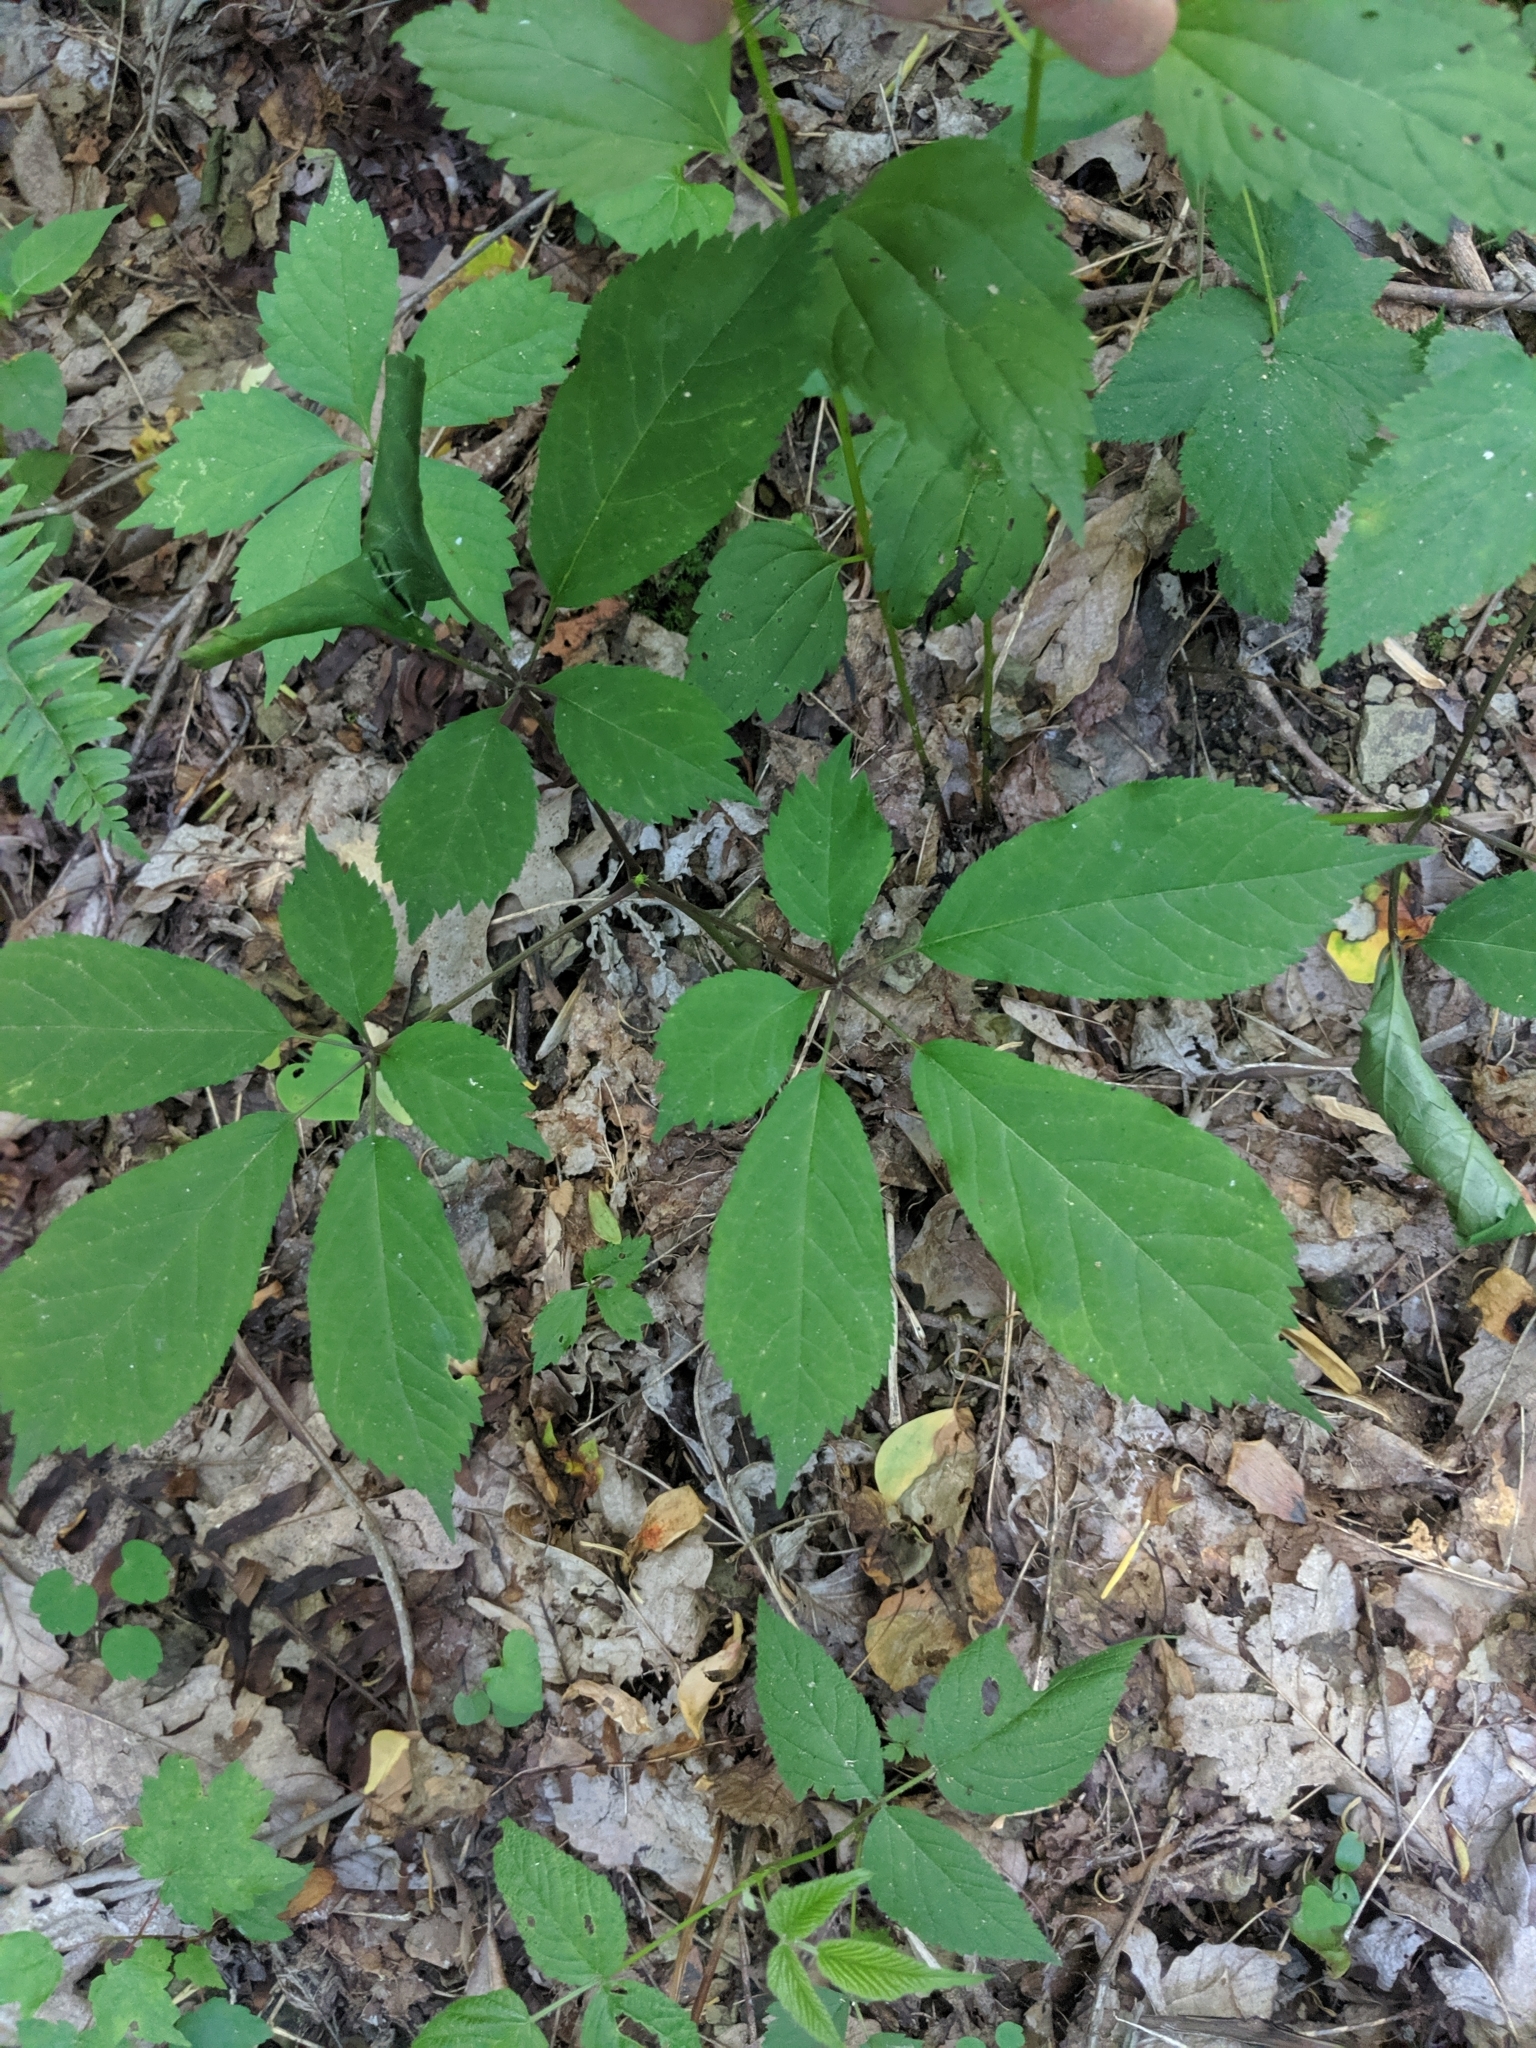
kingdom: Plantae
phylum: Tracheophyta
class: Magnoliopsida
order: Apiales
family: Araliaceae
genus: Panax
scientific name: Panax quinquefolius
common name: American ginseng
